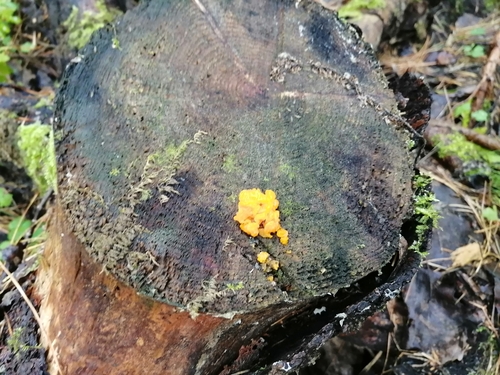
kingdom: Fungi
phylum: Basidiomycota
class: Dacrymycetes
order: Dacrymycetales
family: Dacrymycetaceae
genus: Dacrymyces
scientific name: Dacrymyces chrysospermus
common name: Orange jelly spot
